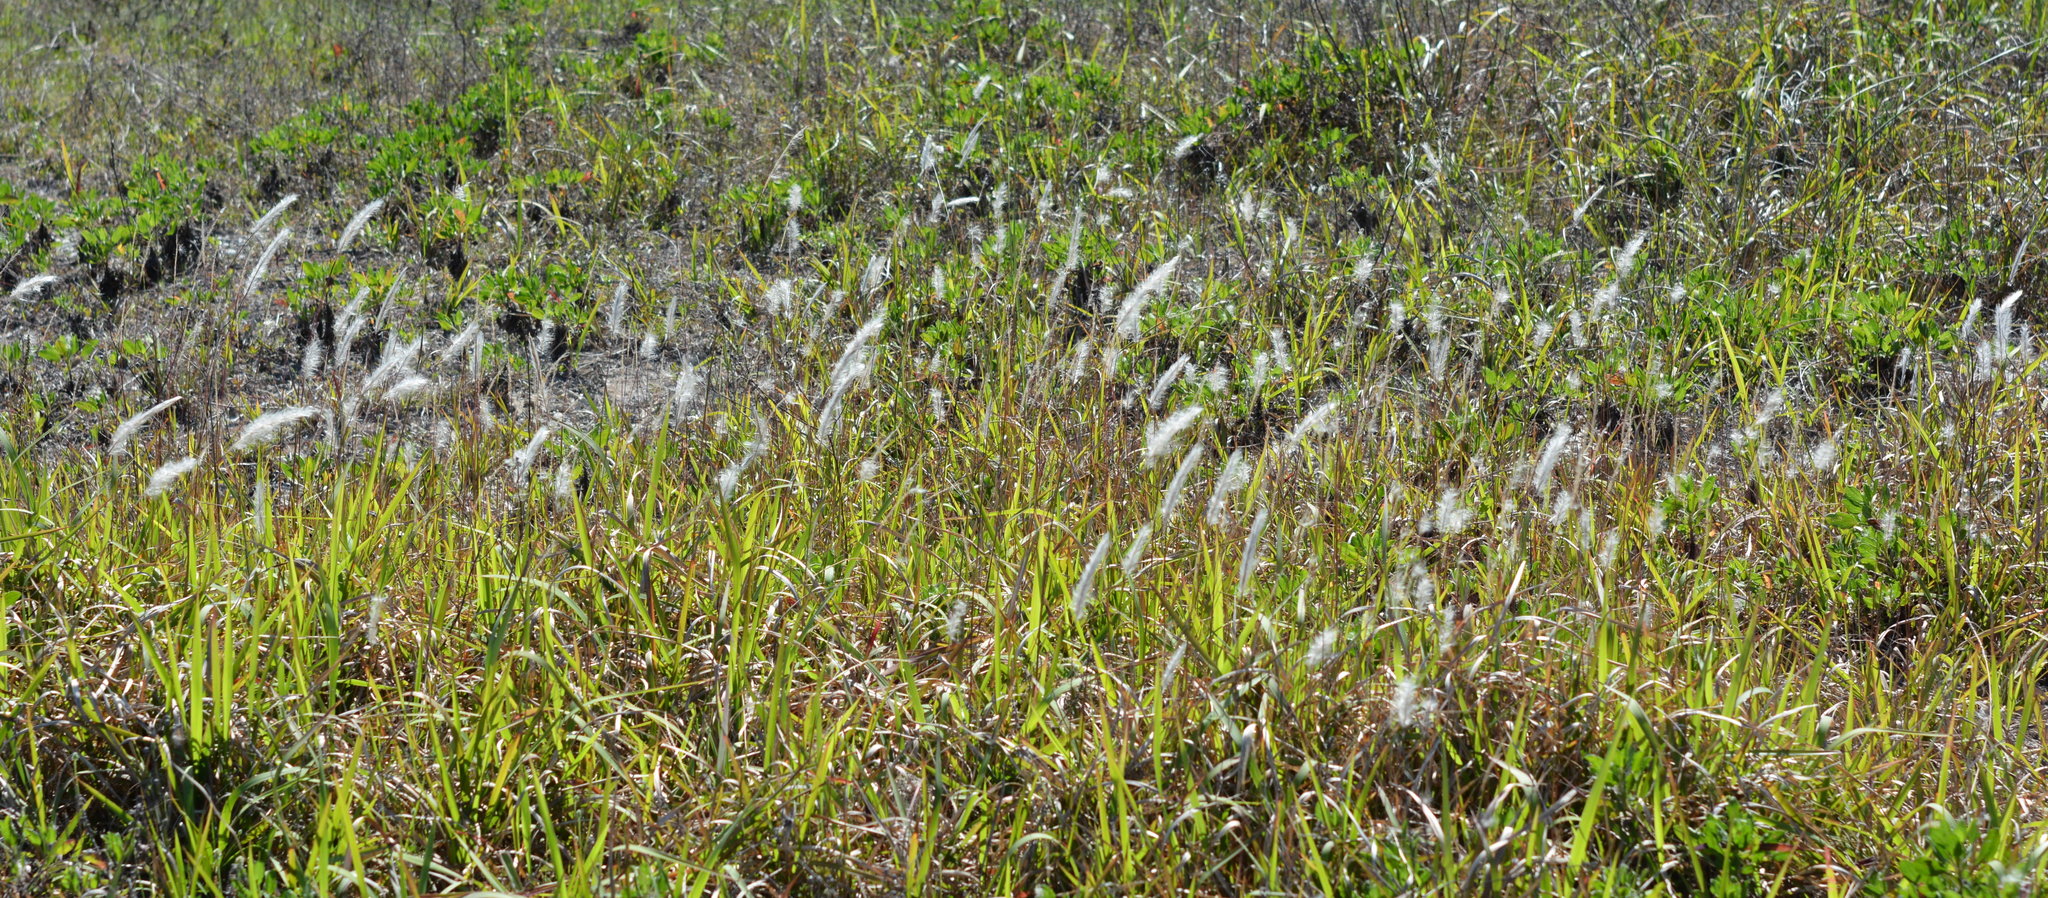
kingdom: Plantae
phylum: Tracheophyta
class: Liliopsida
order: Poales
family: Poaceae
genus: Imperata
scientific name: Imperata cylindrica
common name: Cogongrass
